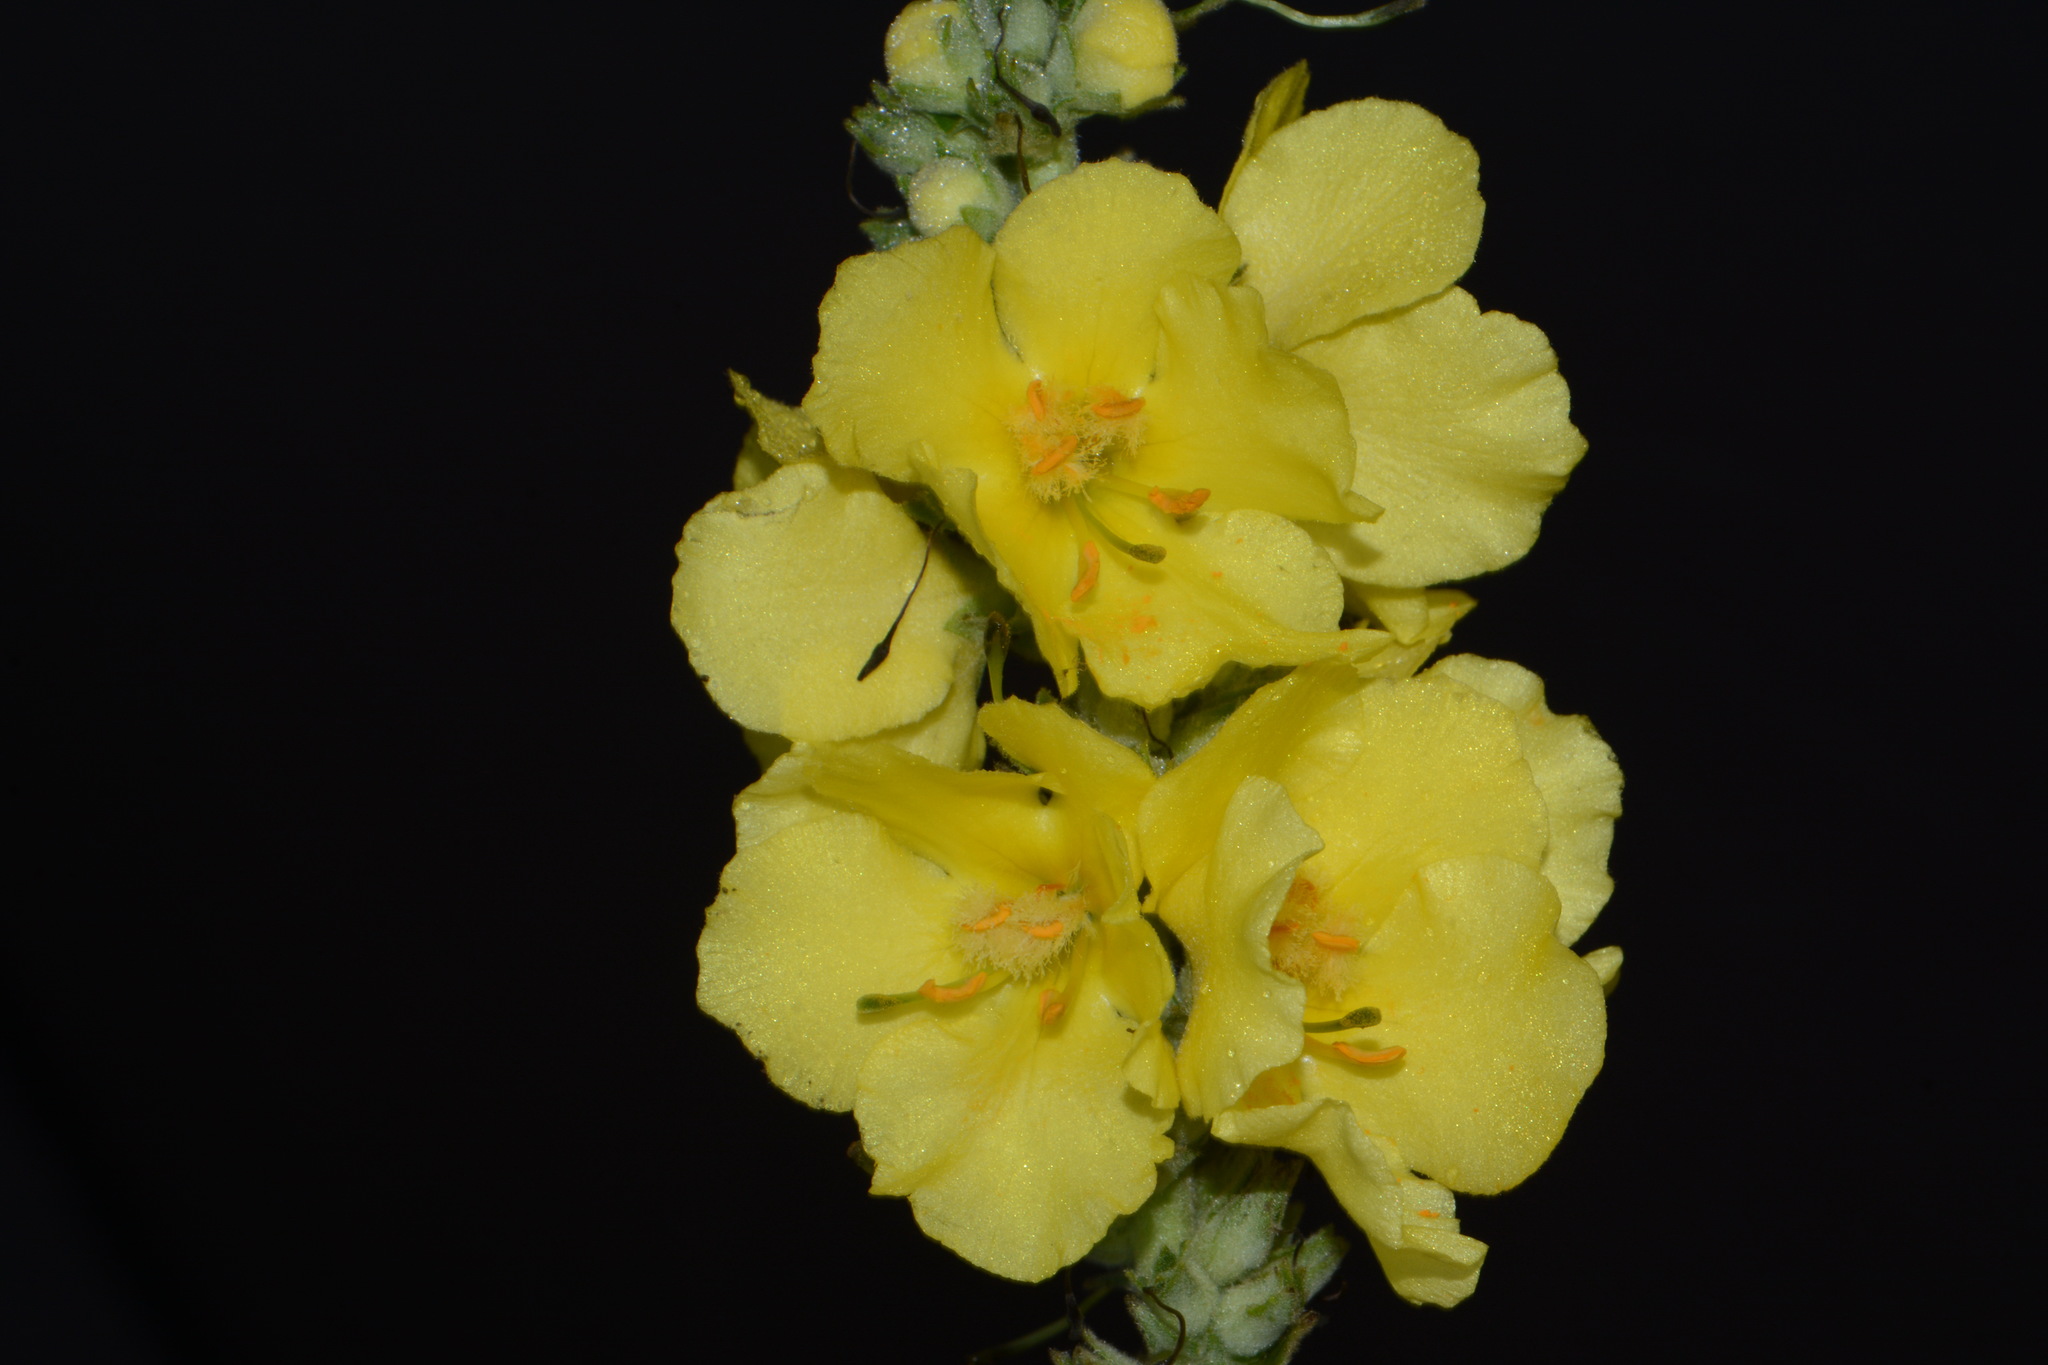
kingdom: Plantae
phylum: Tracheophyta
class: Magnoliopsida
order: Lamiales
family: Scrophulariaceae
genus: Verbascum
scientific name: Verbascum phlomoides
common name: Orange mullein
